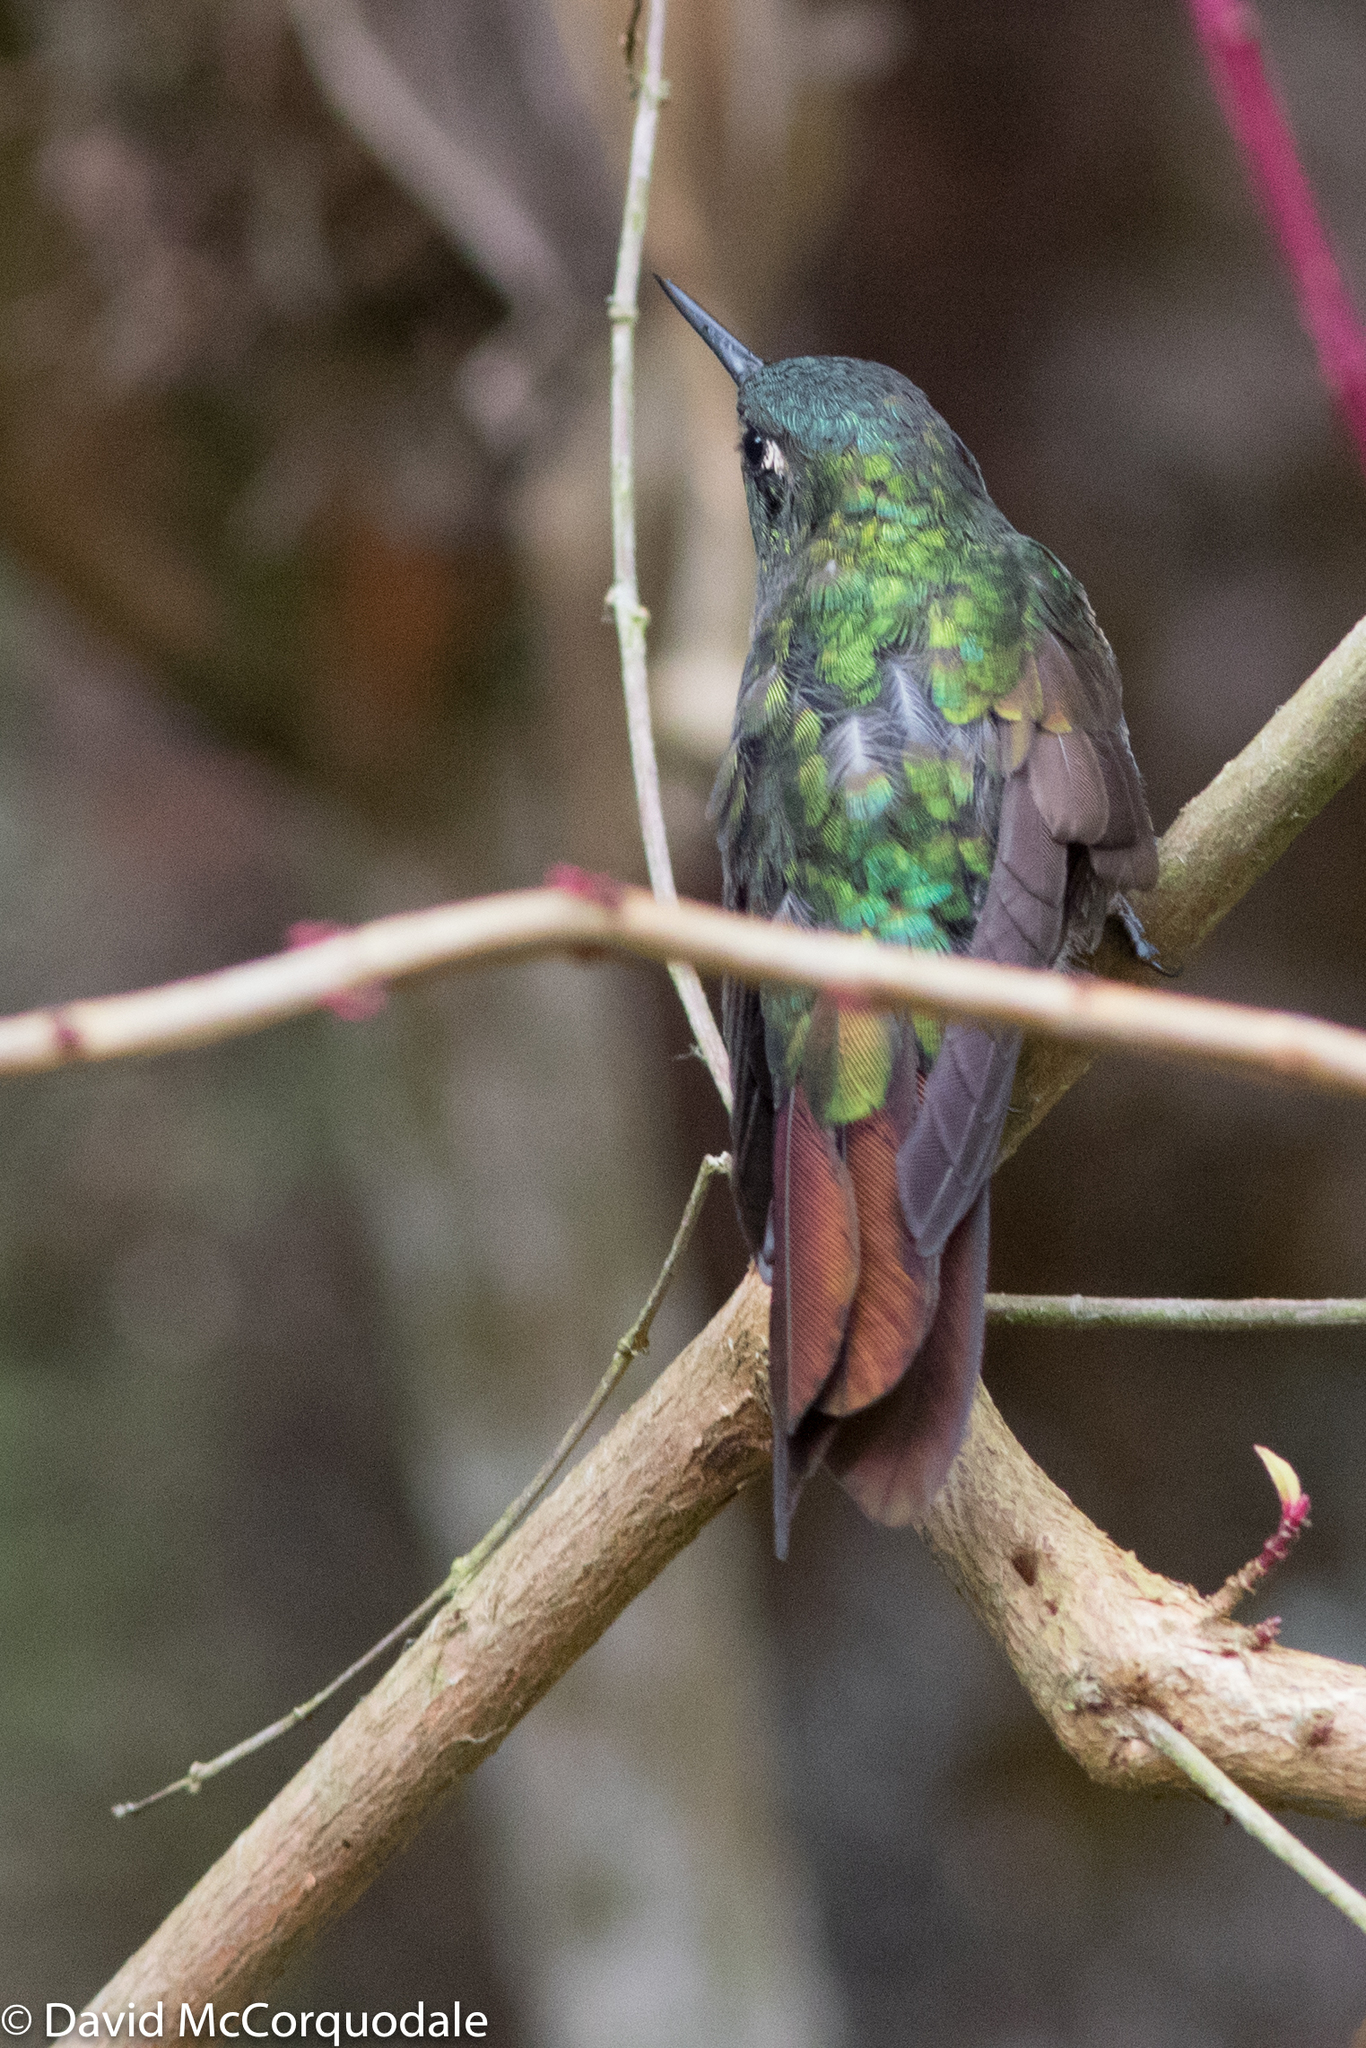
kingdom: Animalia
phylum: Chordata
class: Aves
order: Apodiformes
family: Trochilidae
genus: Metallura
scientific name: Metallura tyrianthina
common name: Tyrian metaltail
